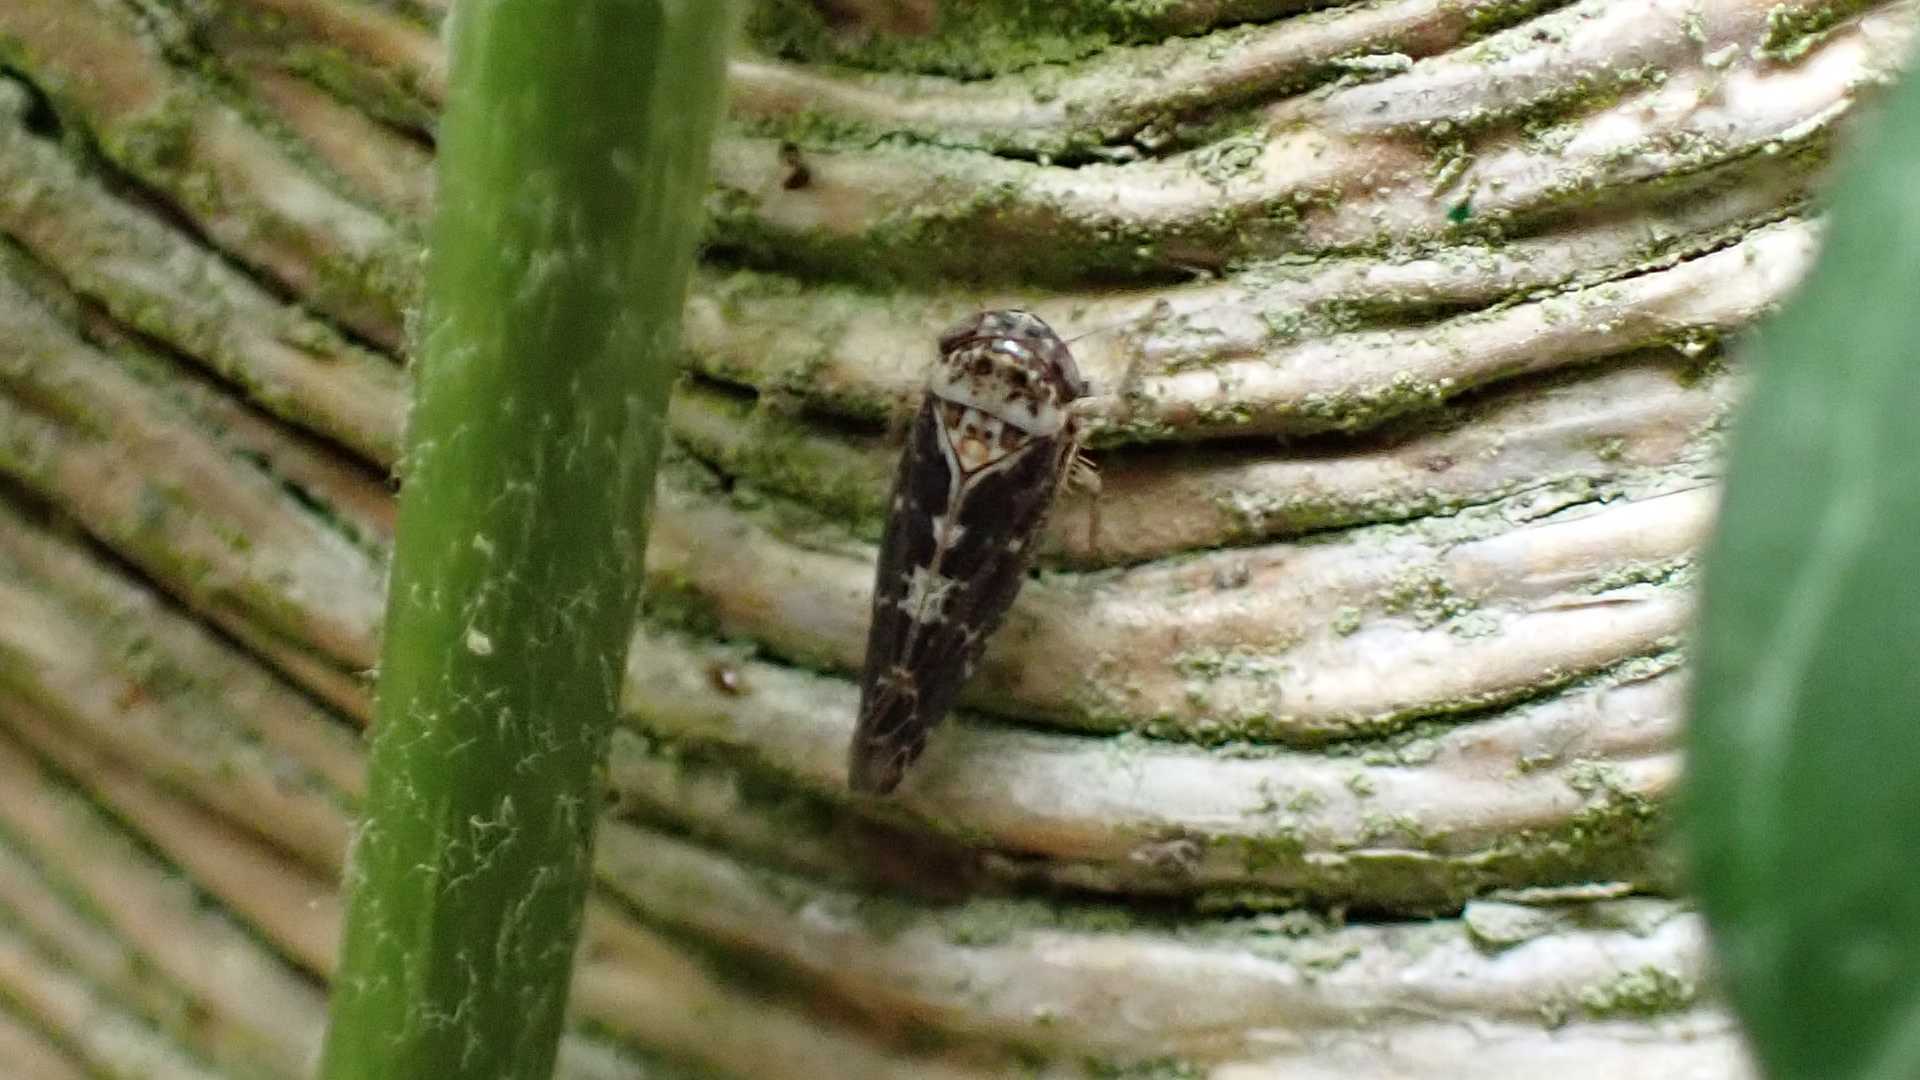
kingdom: Animalia
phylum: Arthropoda
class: Insecta
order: Hemiptera
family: Cicadellidae
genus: Allygus
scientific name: Allygus maculatus
